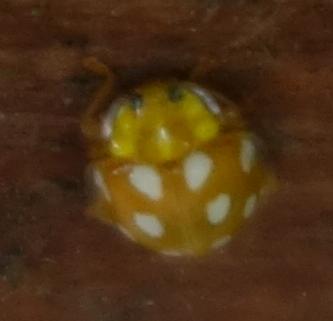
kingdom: Animalia
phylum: Arthropoda
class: Insecta
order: Coleoptera
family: Coccinellidae
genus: Halyzia
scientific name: Halyzia sedecimguttata
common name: Orange ladybird
